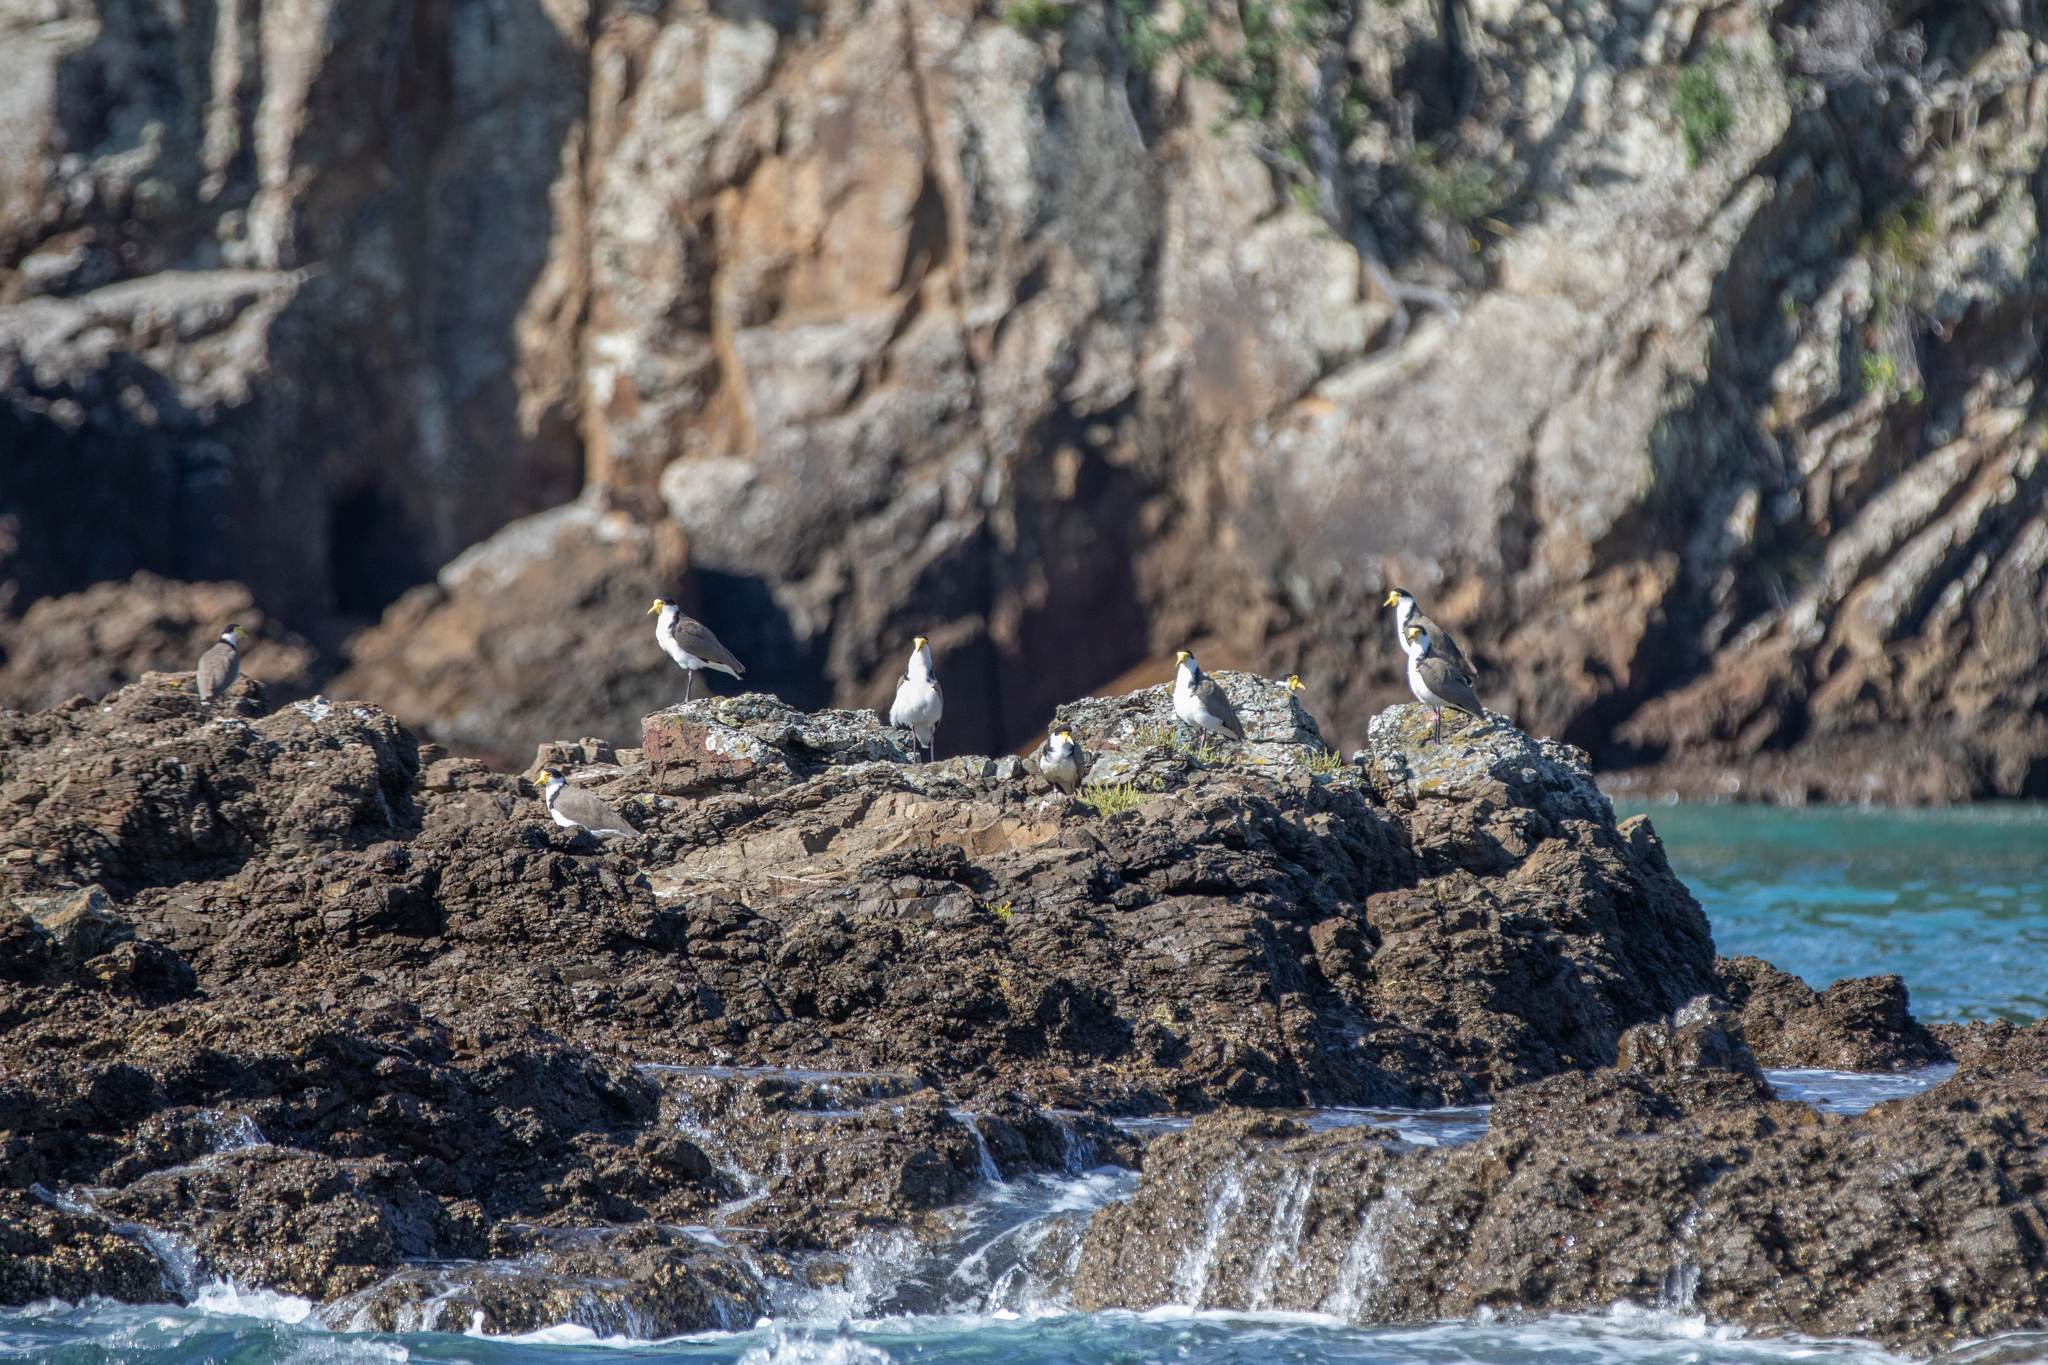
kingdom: Animalia
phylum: Chordata
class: Aves
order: Charadriiformes
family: Charadriidae
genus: Vanellus
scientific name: Vanellus miles
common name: Masked lapwing
